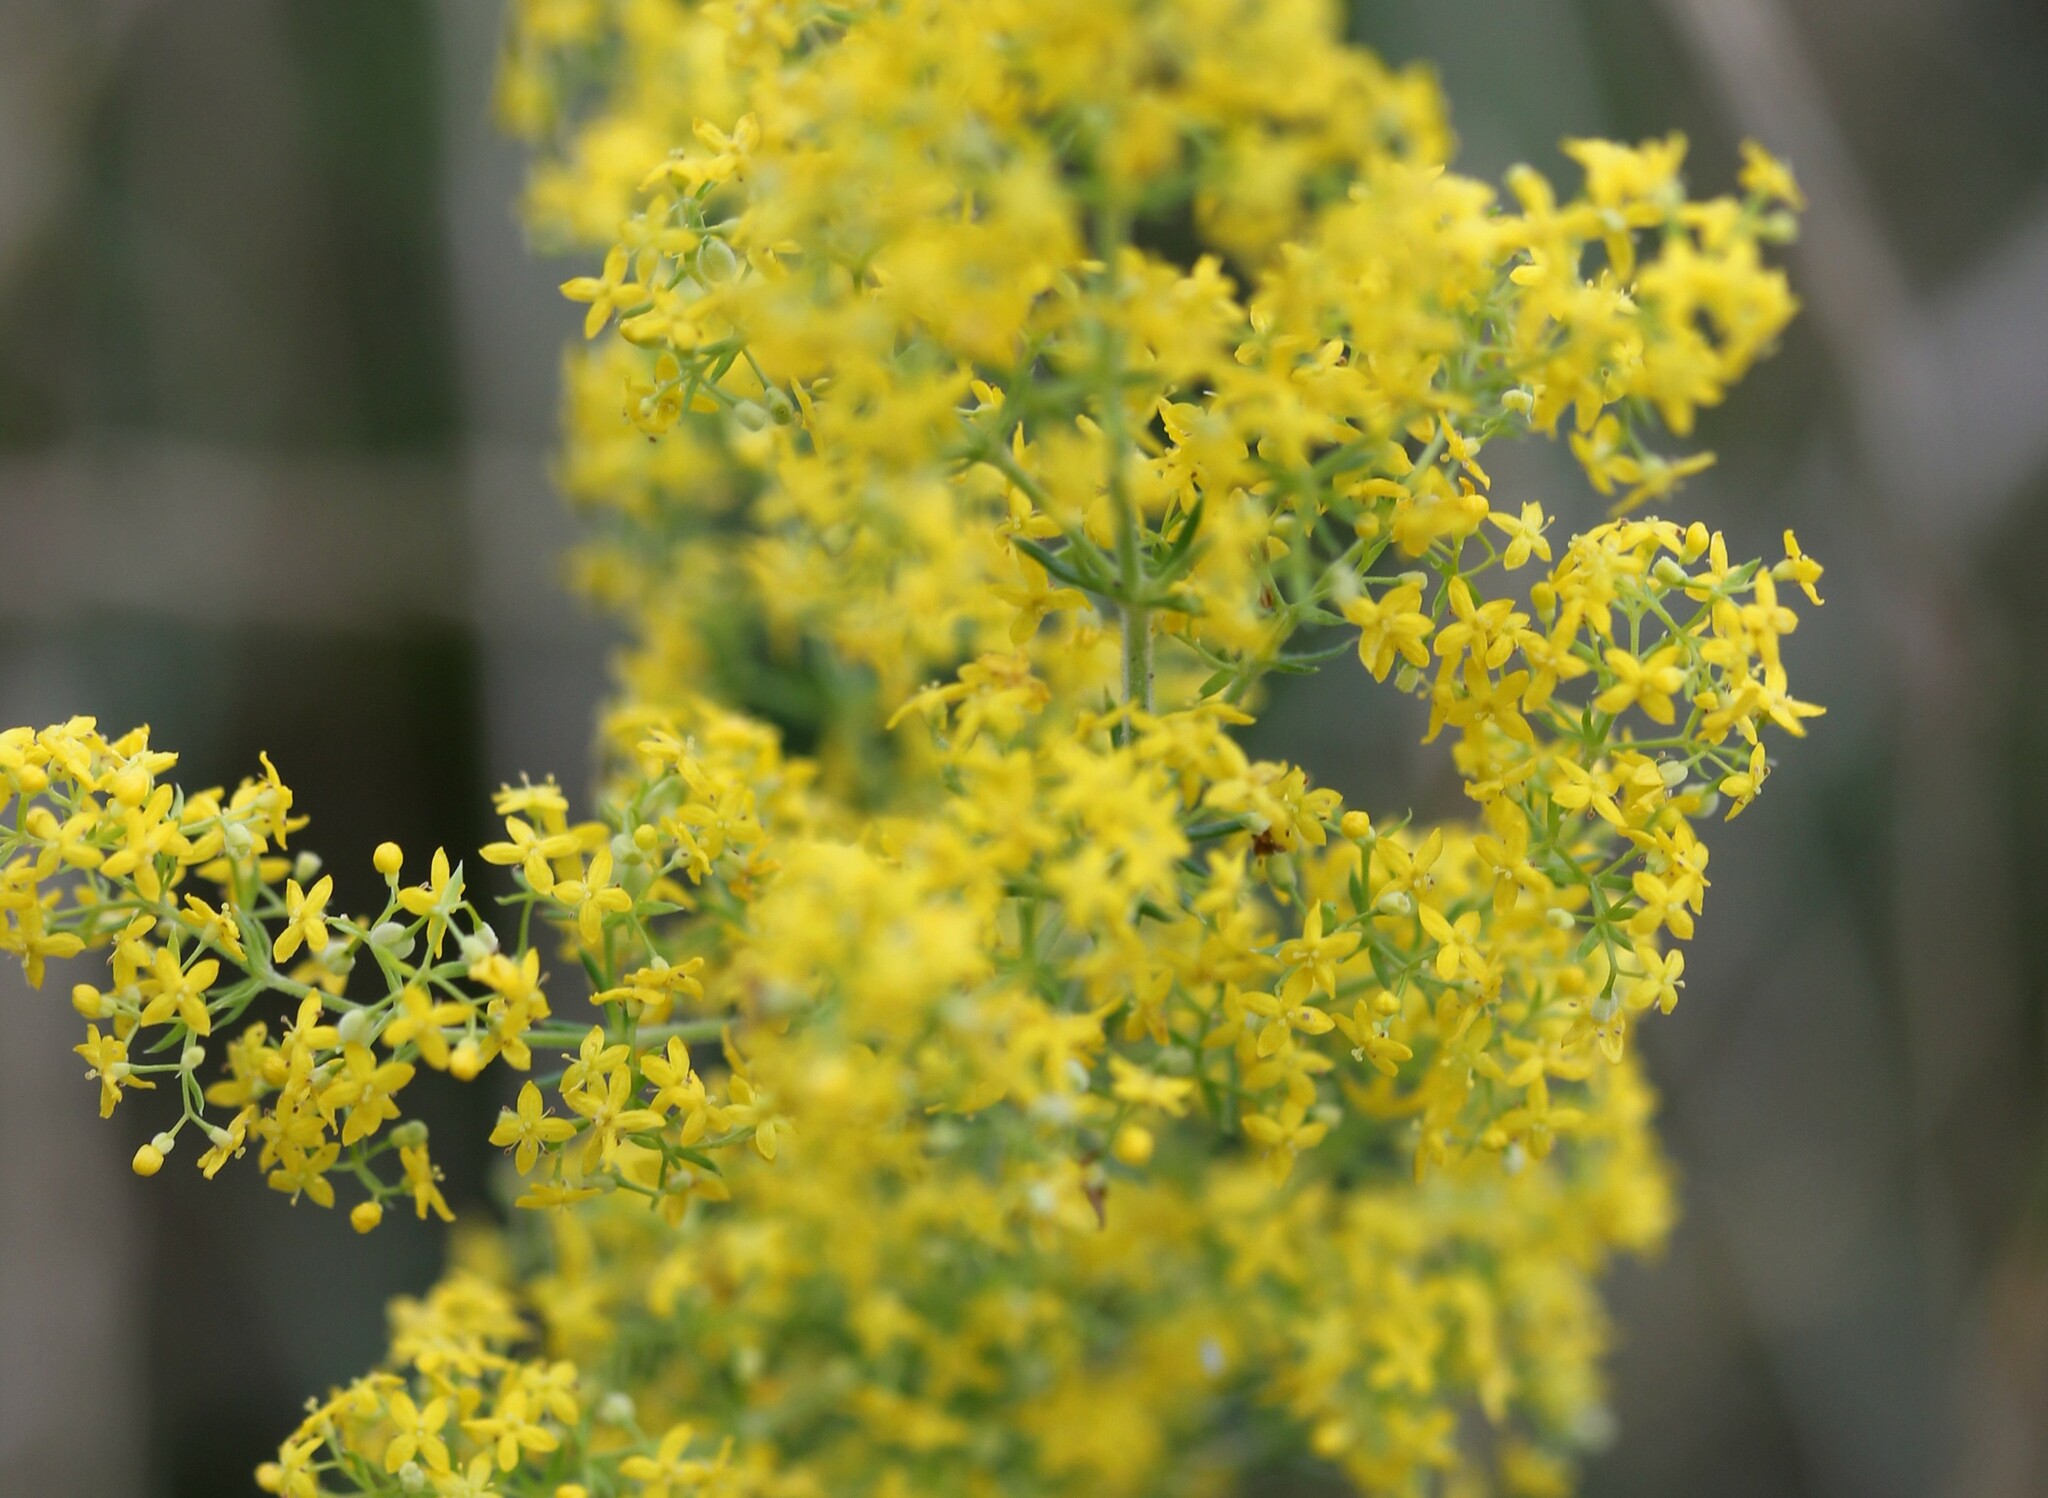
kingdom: Plantae
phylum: Tracheophyta
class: Magnoliopsida
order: Gentianales
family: Rubiaceae
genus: Galium
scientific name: Galium verum
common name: Lady's bedstraw
